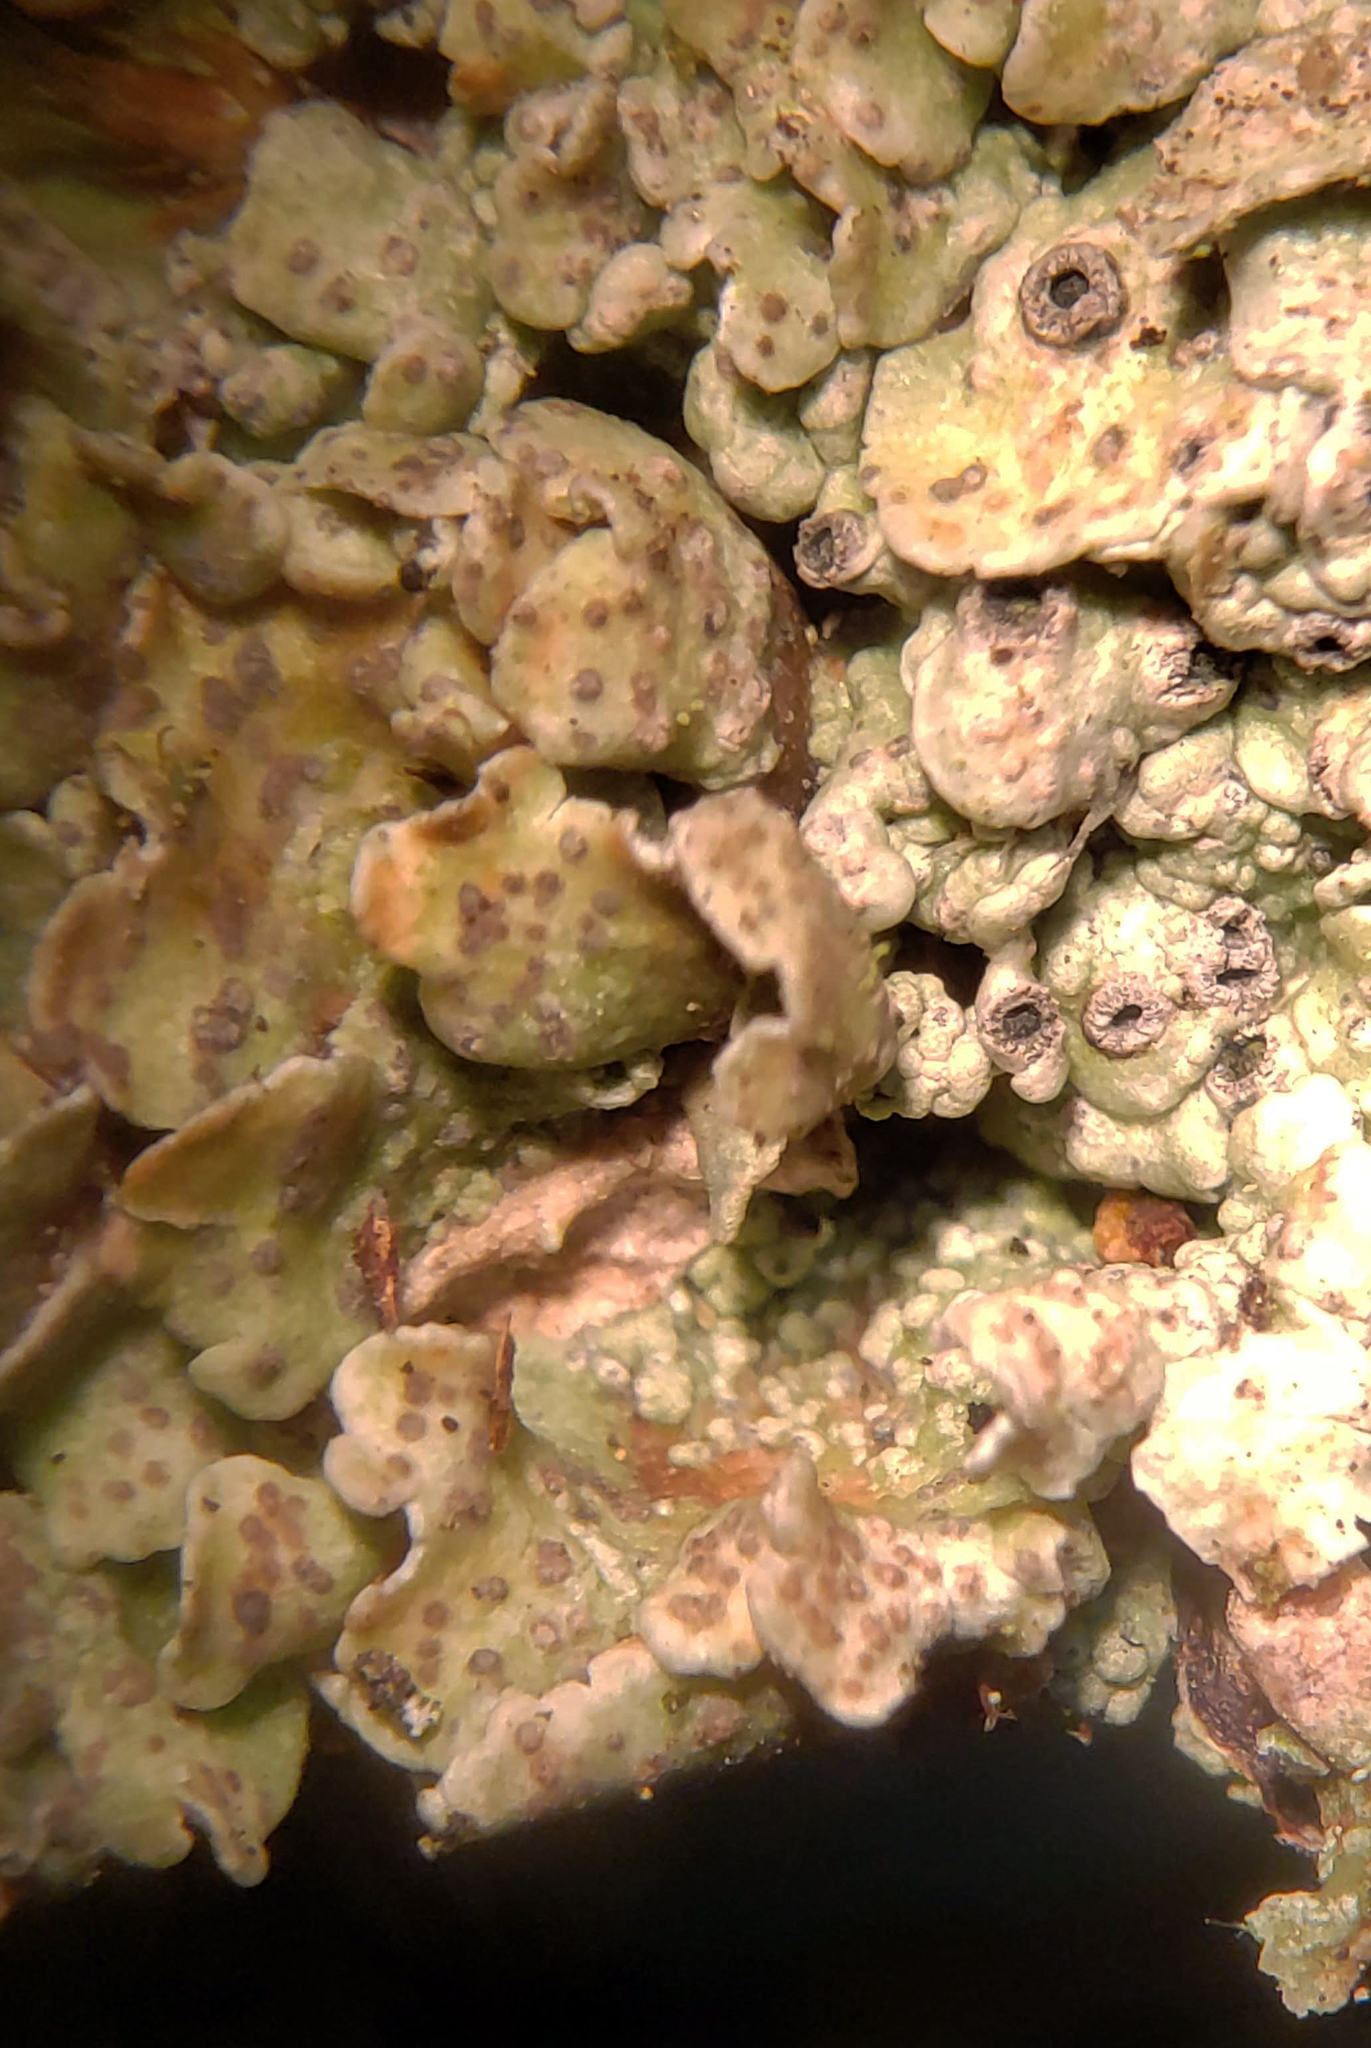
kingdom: Fungi
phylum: Ascomycota
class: Lecanoromycetes
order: Ostropales
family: Graphidaceae
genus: Diploschistes
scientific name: Diploschistes muscorum
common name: Cowpie lichen
